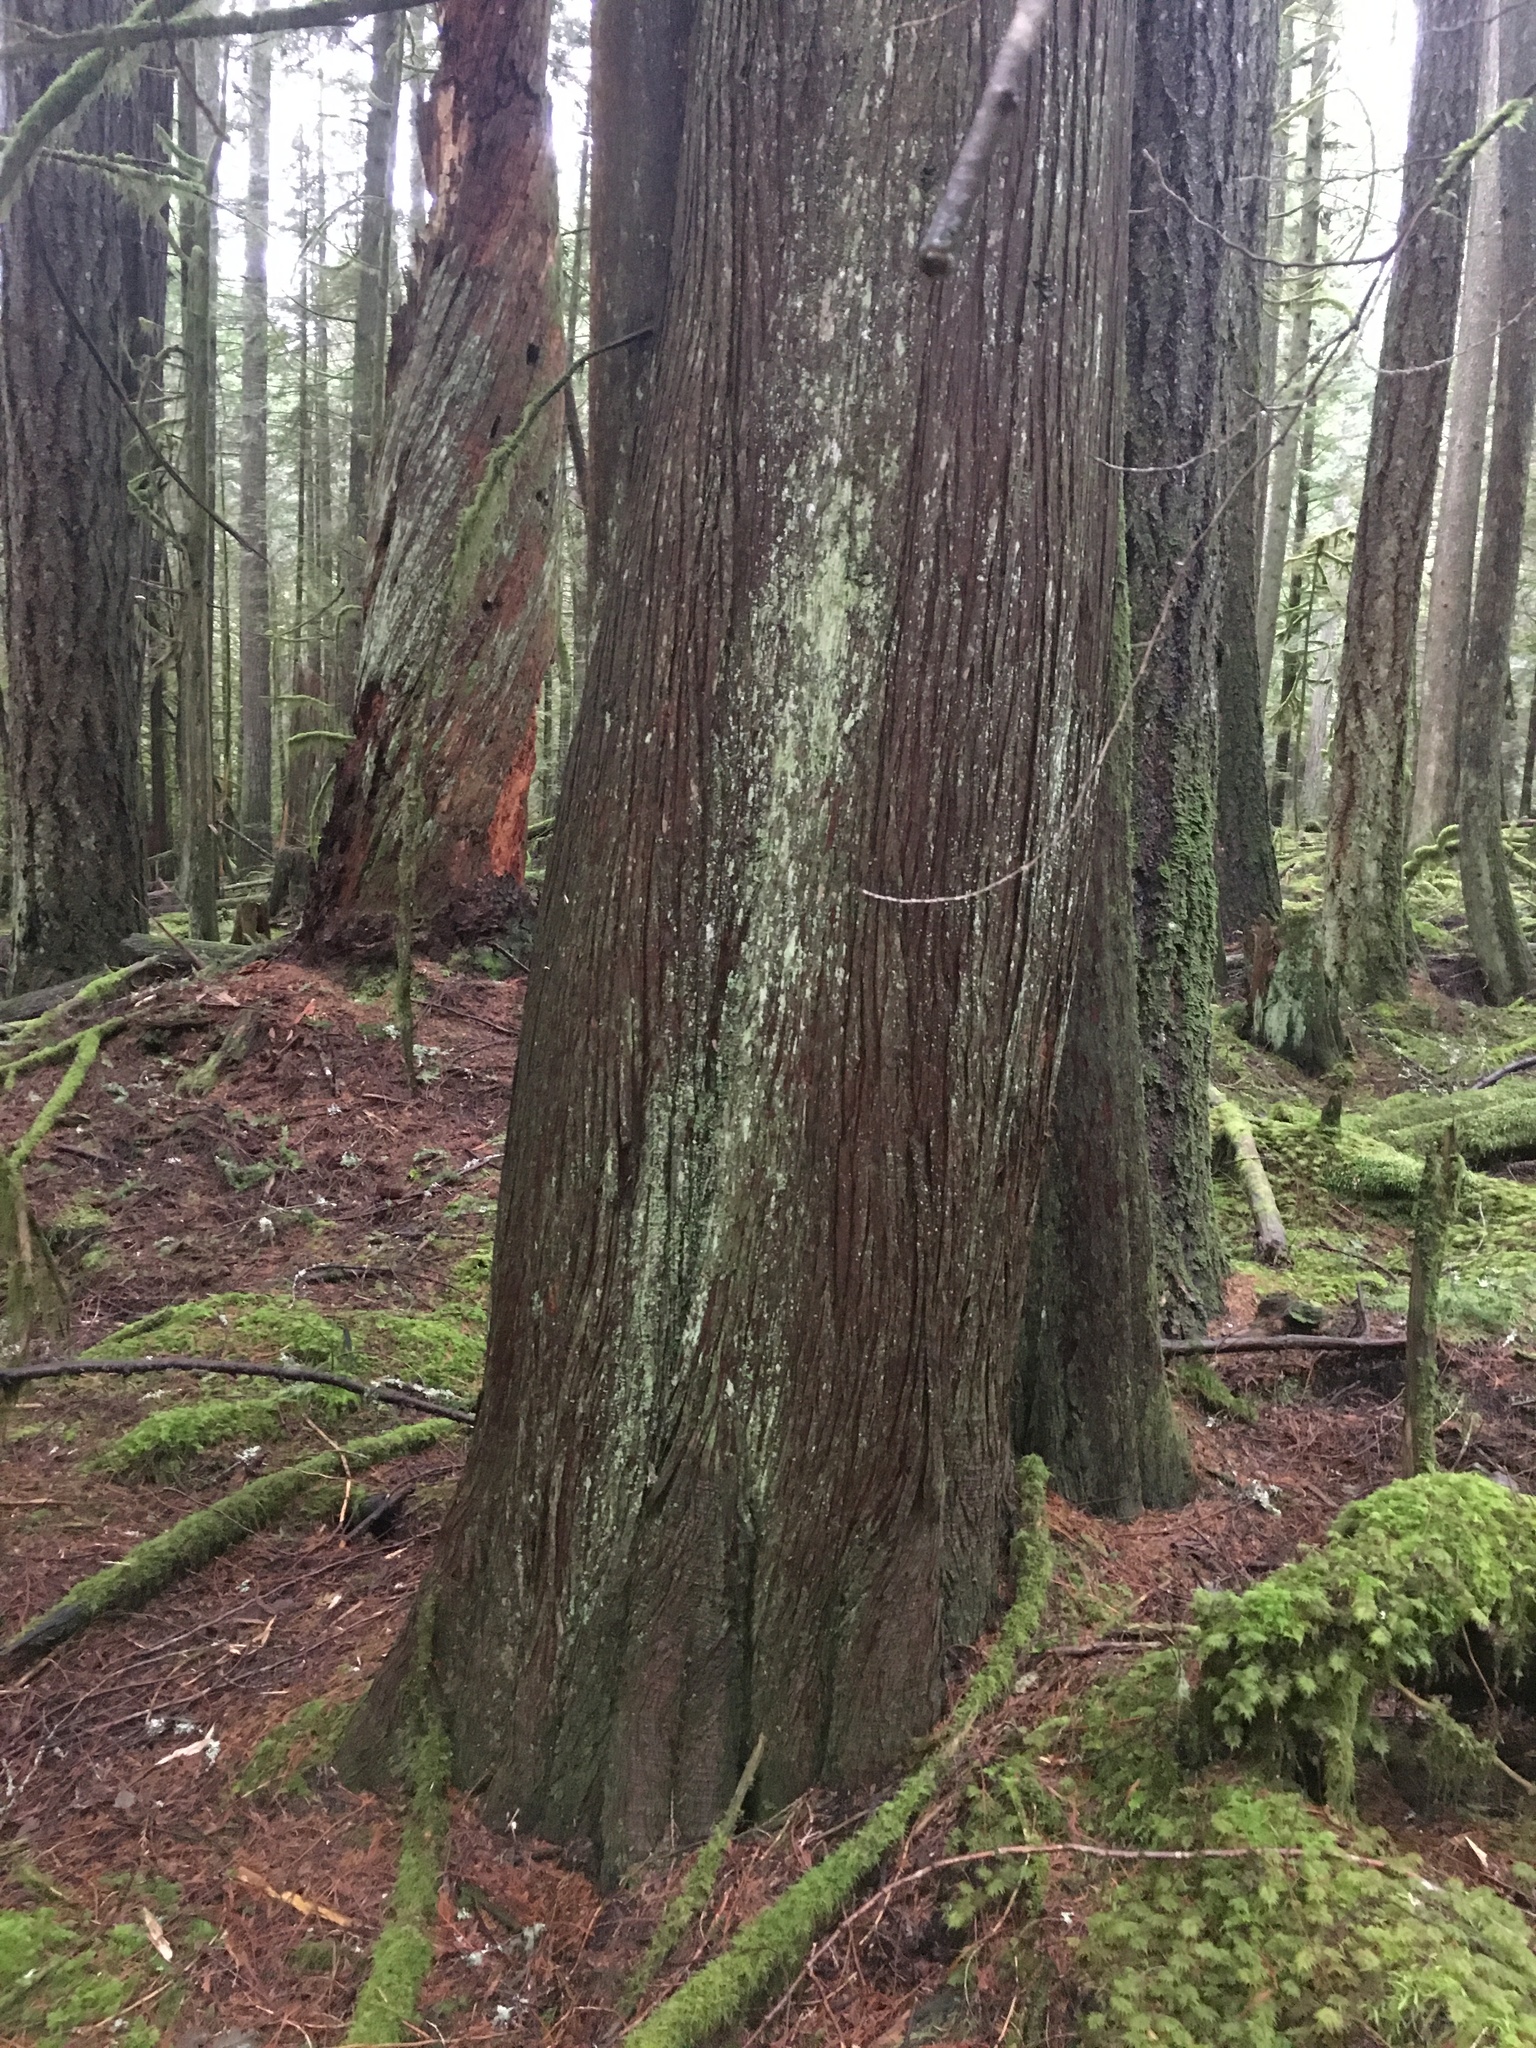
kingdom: Plantae
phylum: Tracheophyta
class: Pinopsida
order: Pinales
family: Cupressaceae
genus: Thuja
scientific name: Thuja plicata
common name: Western red-cedar
